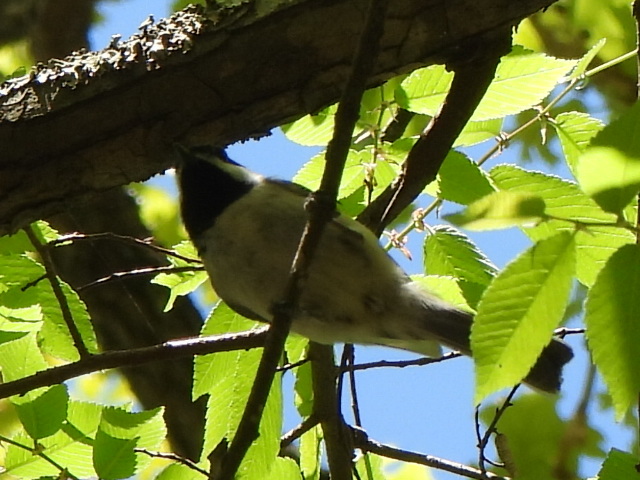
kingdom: Animalia
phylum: Chordata
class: Aves
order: Passeriformes
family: Paridae
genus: Poecile
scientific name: Poecile carolinensis
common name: Carolina chickadee
